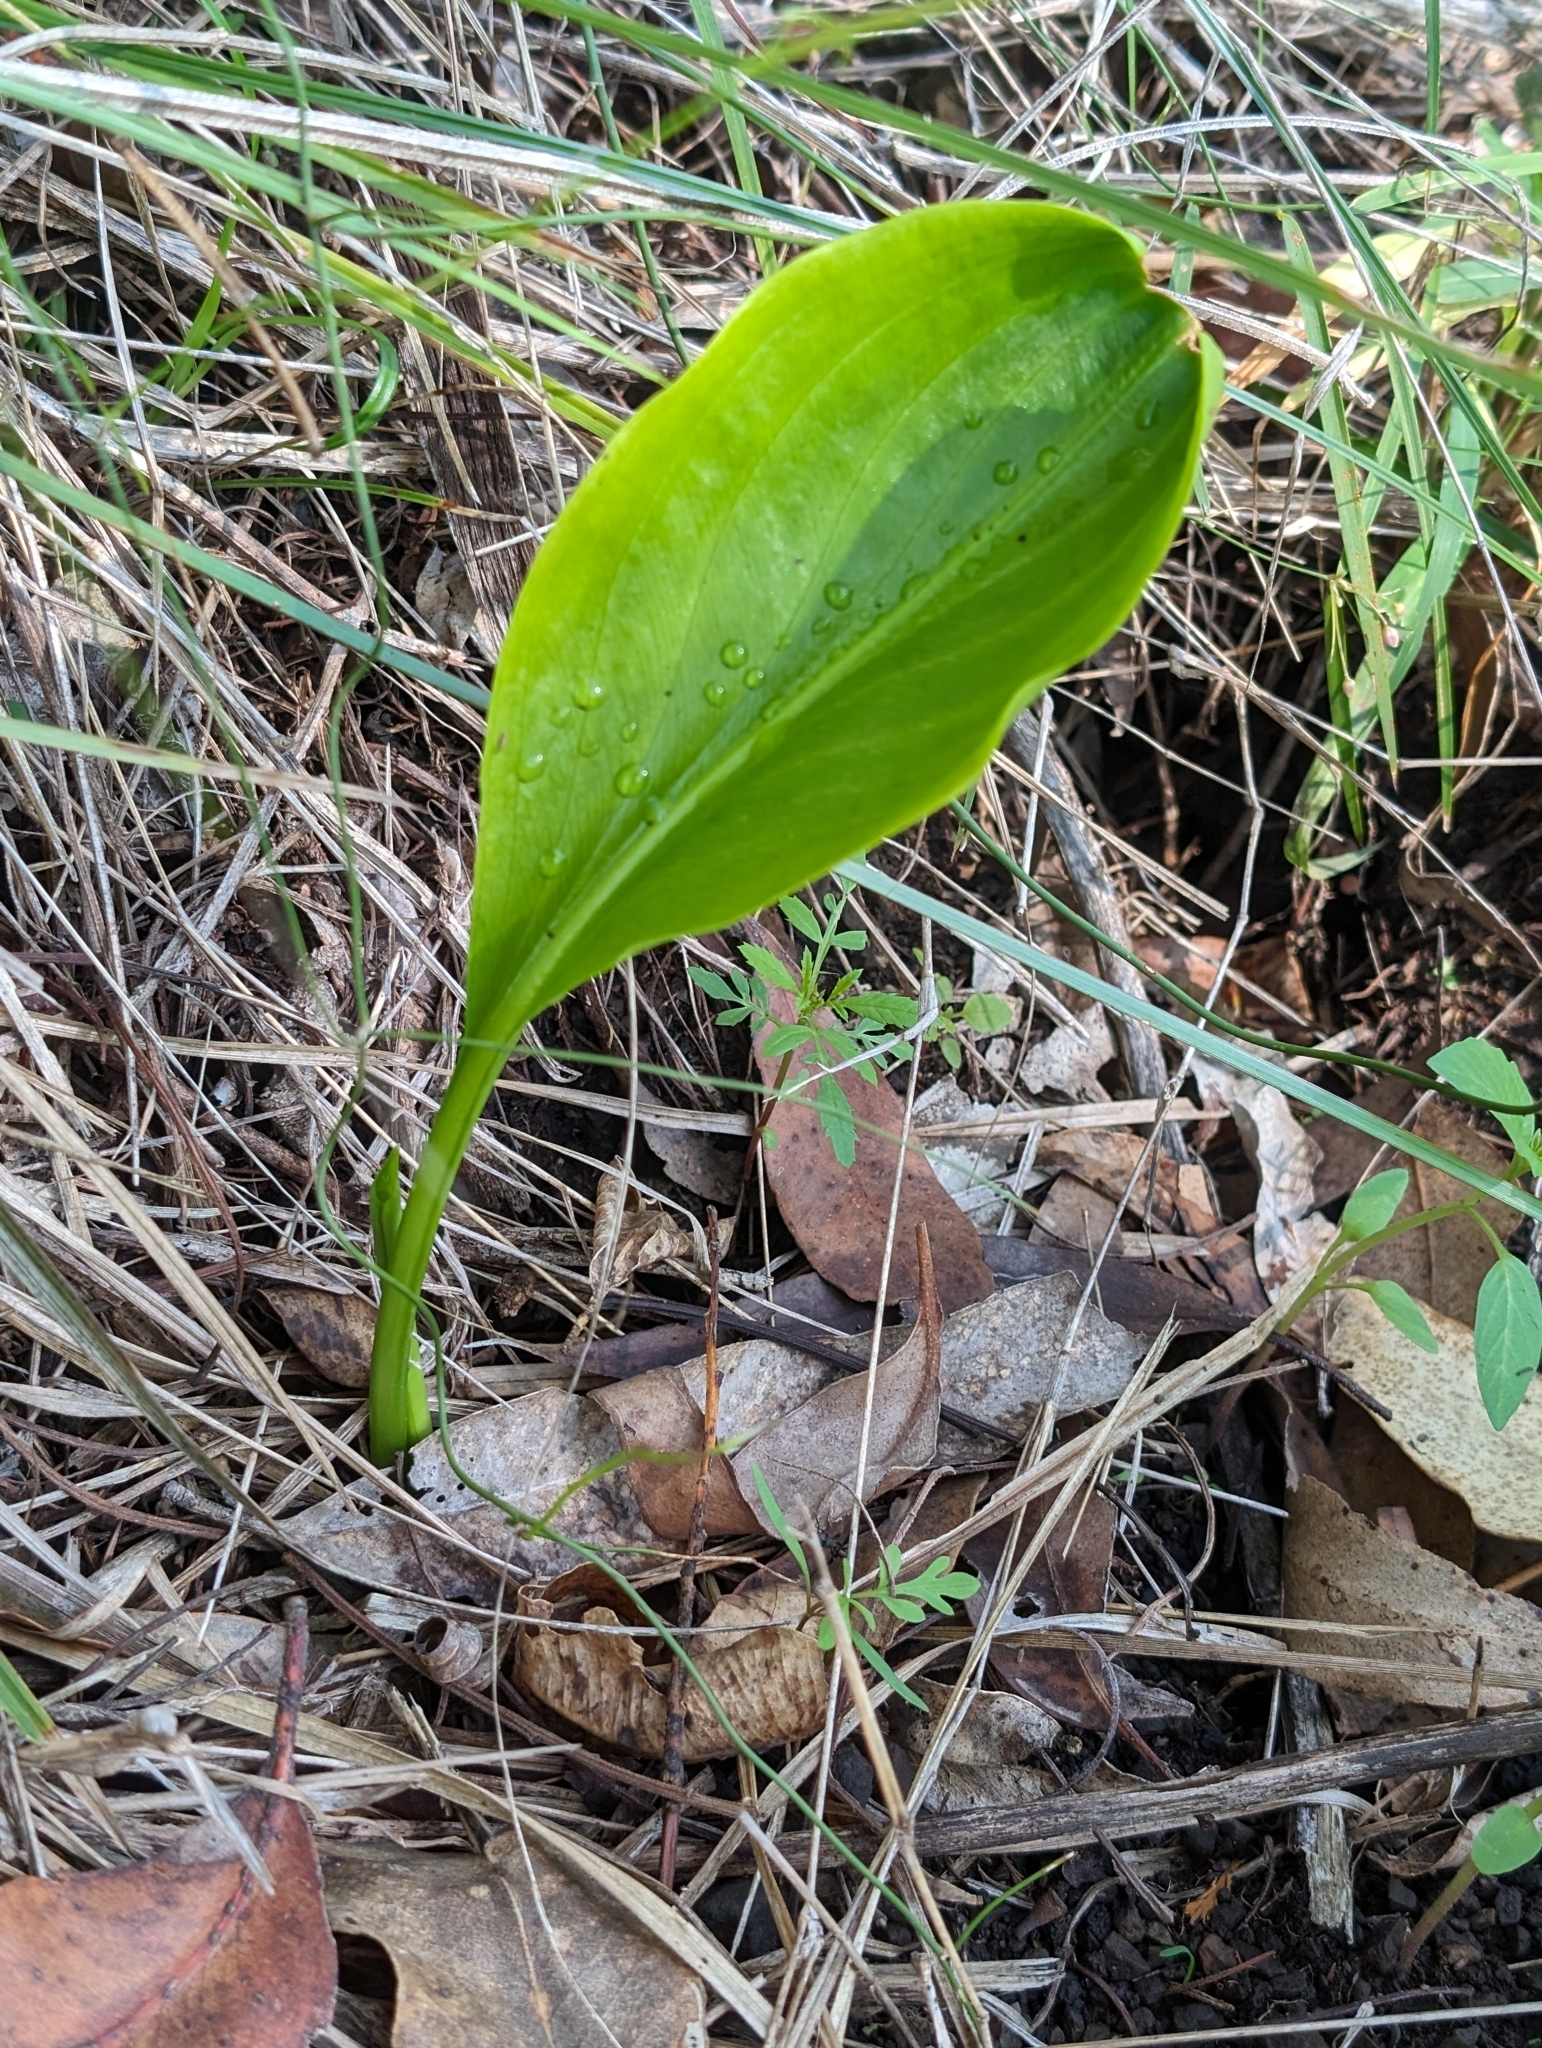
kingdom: Plantae
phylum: Tracheophyta
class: Liliopsida
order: Asparagales
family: Amaryllidaceae
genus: Proiphys
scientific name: Proiphys cunninghamii
